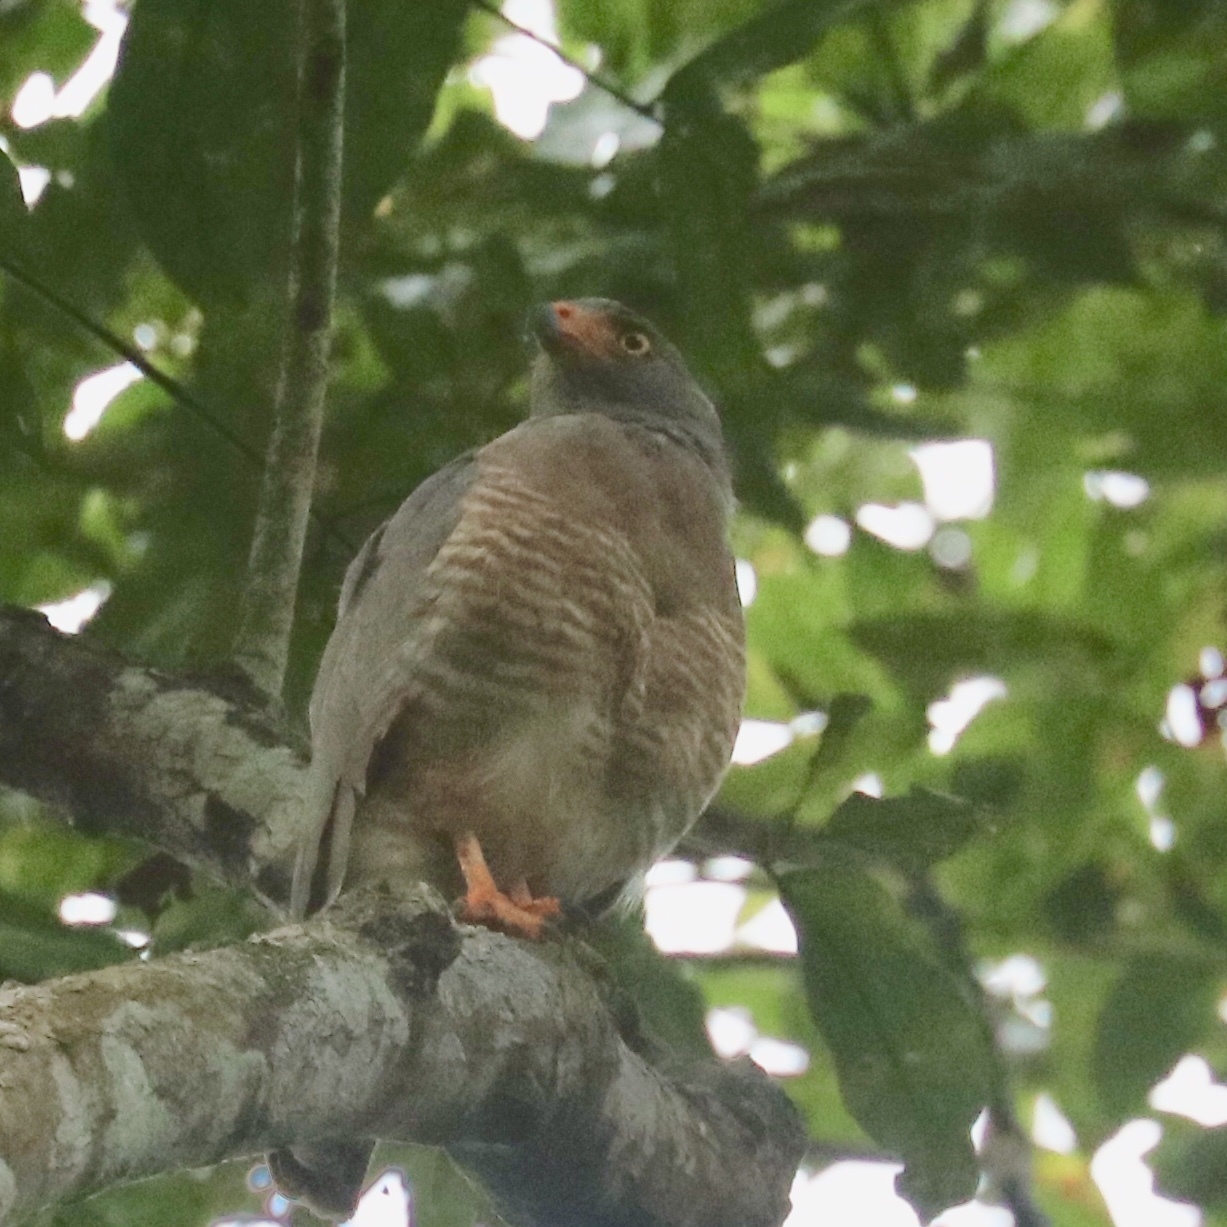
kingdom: Animalia
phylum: Chordata
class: Aves
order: Accipitriformes
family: Accipitridae
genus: Rupornis
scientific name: Rupornis magnirostris
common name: Roadside hawk
